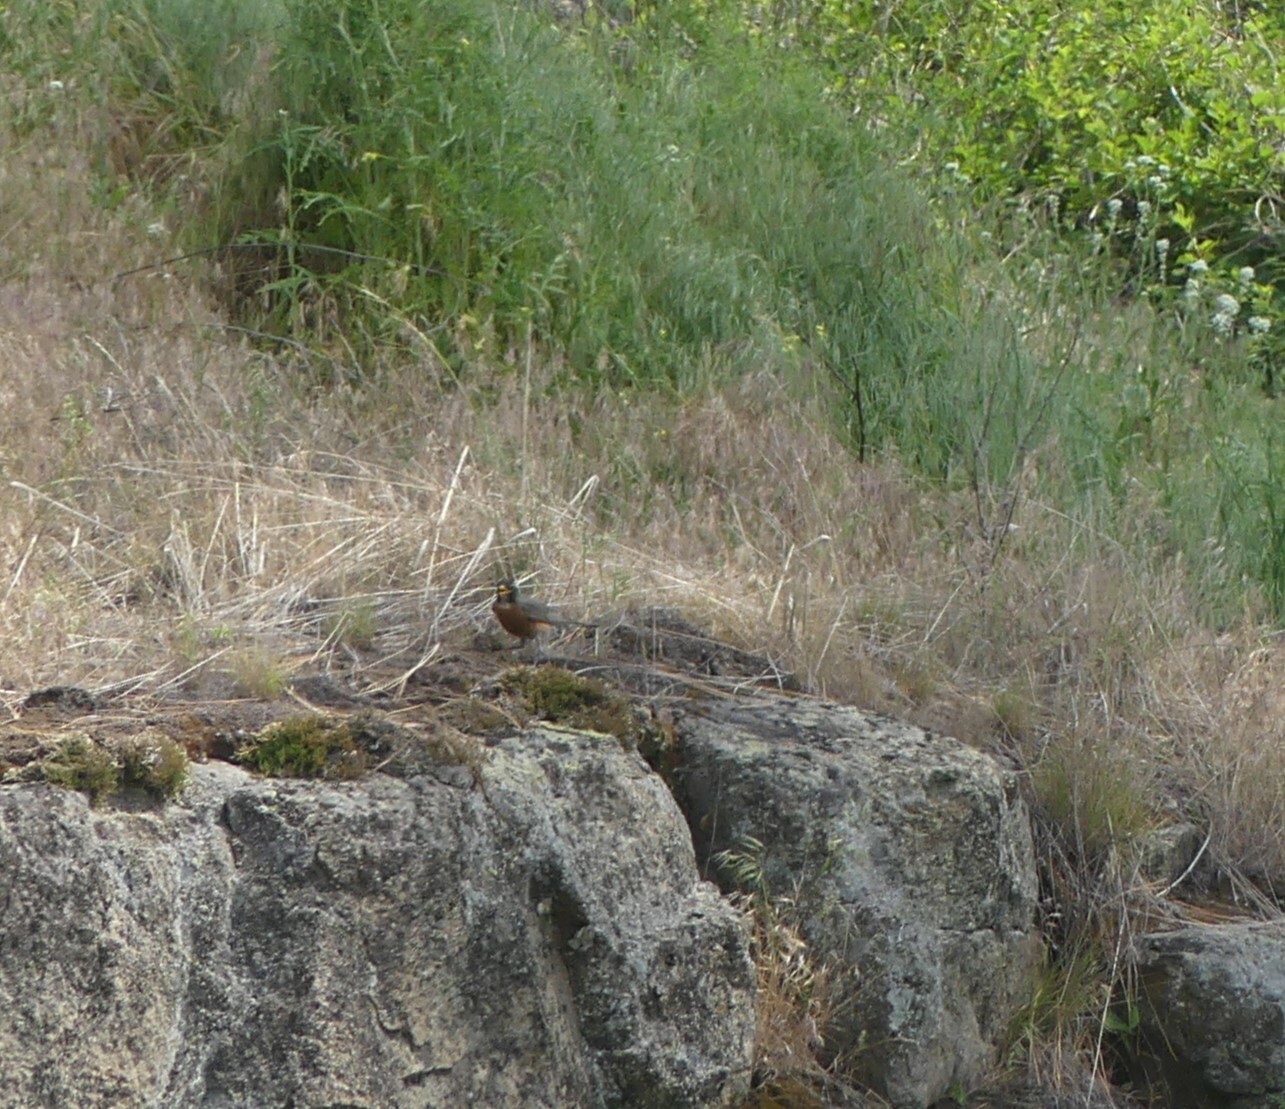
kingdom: Animalia
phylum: Chordata
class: Aves
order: Passeriformes
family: Turdidae
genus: Turdus
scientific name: Turdus migratorius
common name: American robin
